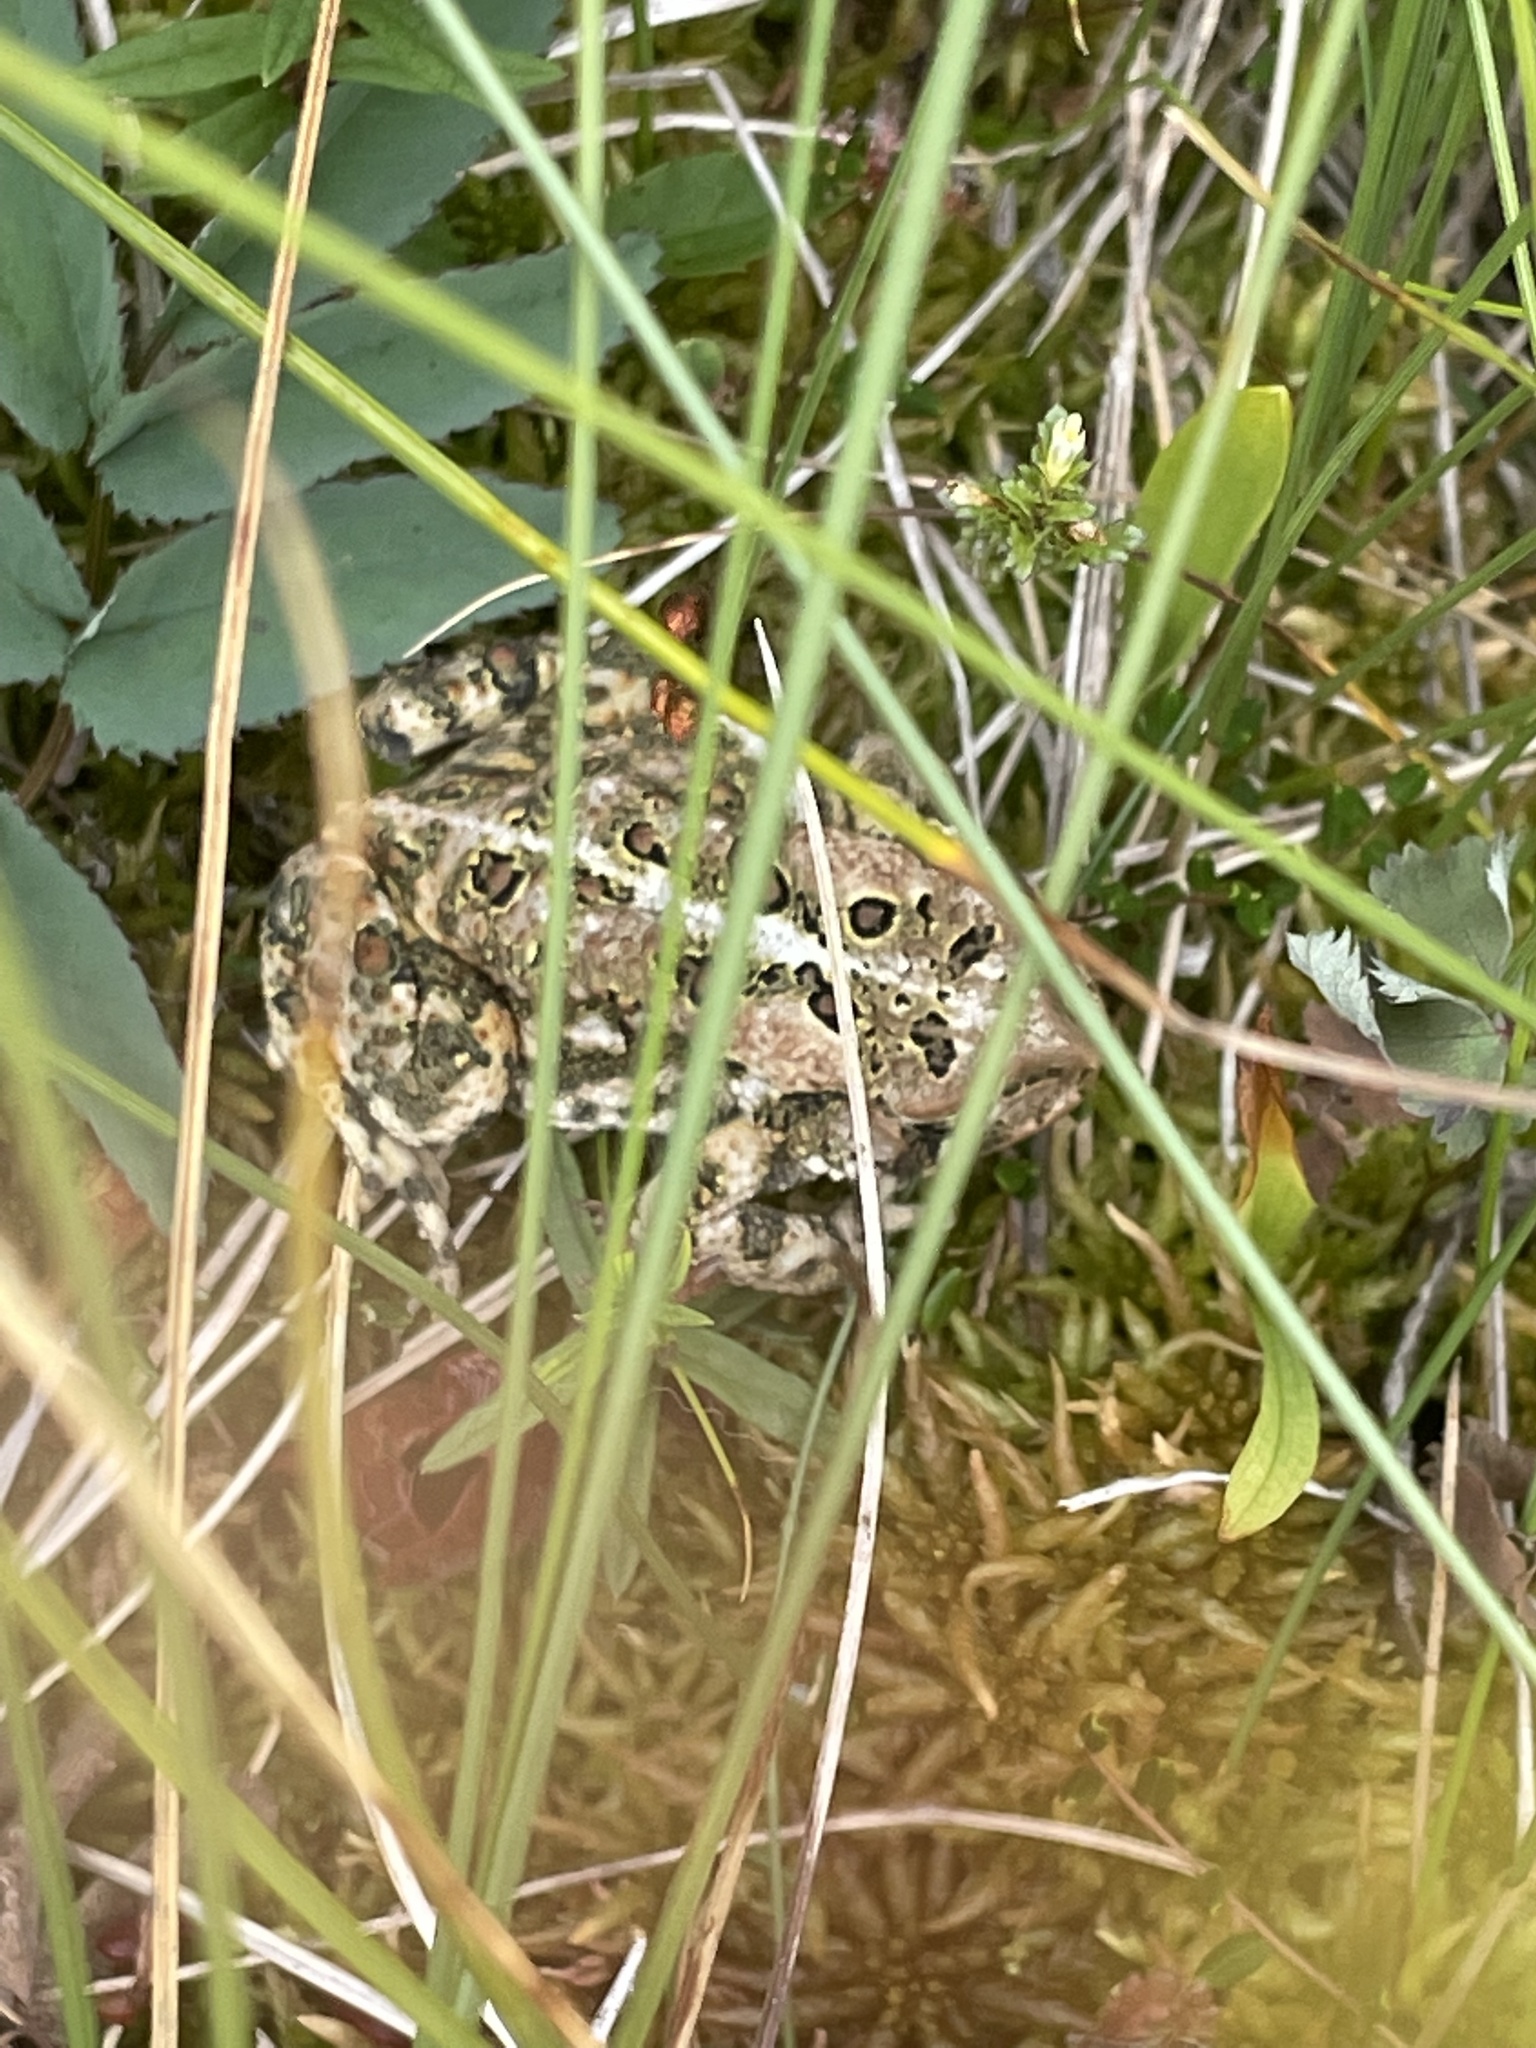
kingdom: Animalia
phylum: Chordata
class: Amphibia
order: Anura
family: Bufonidae
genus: Anaxyrus
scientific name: Anaxyrus americanus
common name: American toad
